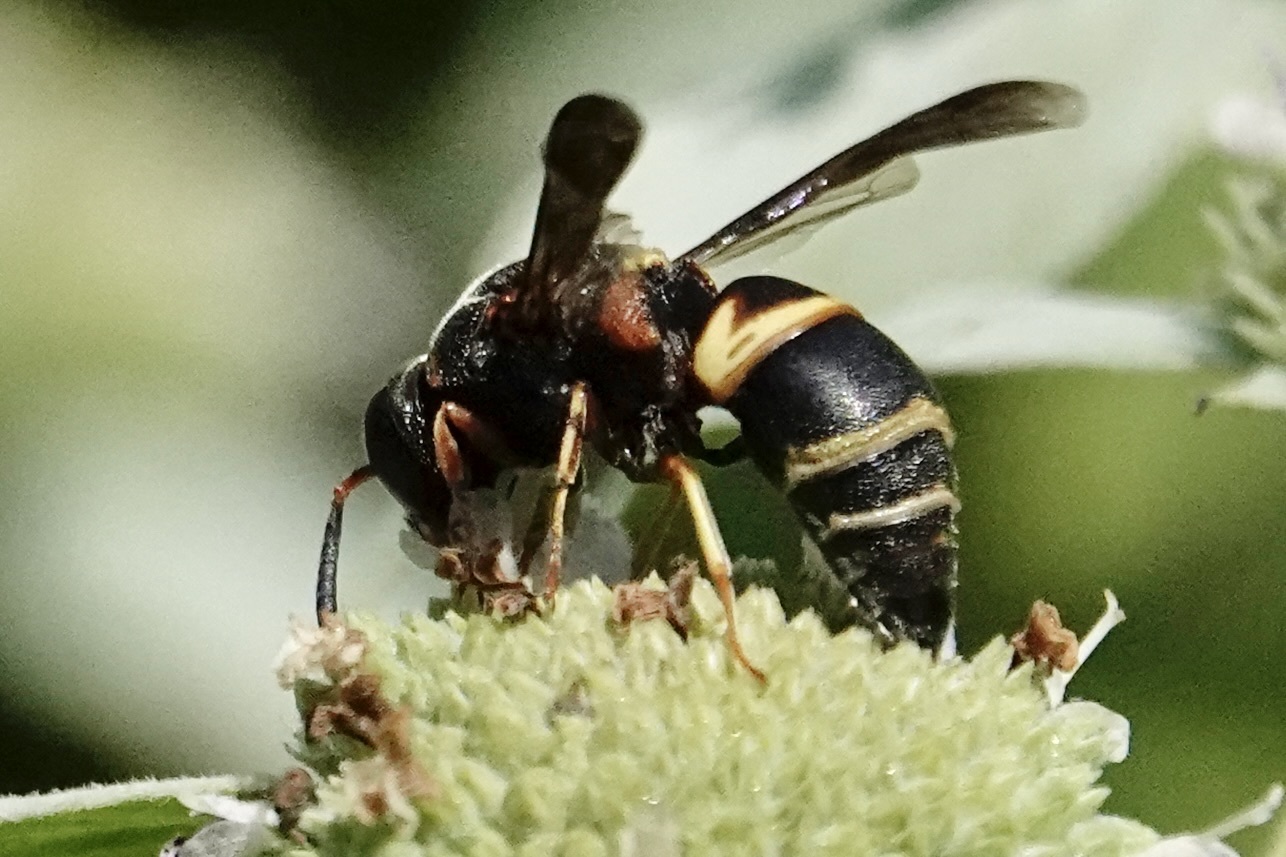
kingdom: Animalia
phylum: Arthropoda
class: Insecta
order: Hymenoptera
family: Eumenidae
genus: Euodynerus
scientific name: Euodynerus hidalgo
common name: Wasp
